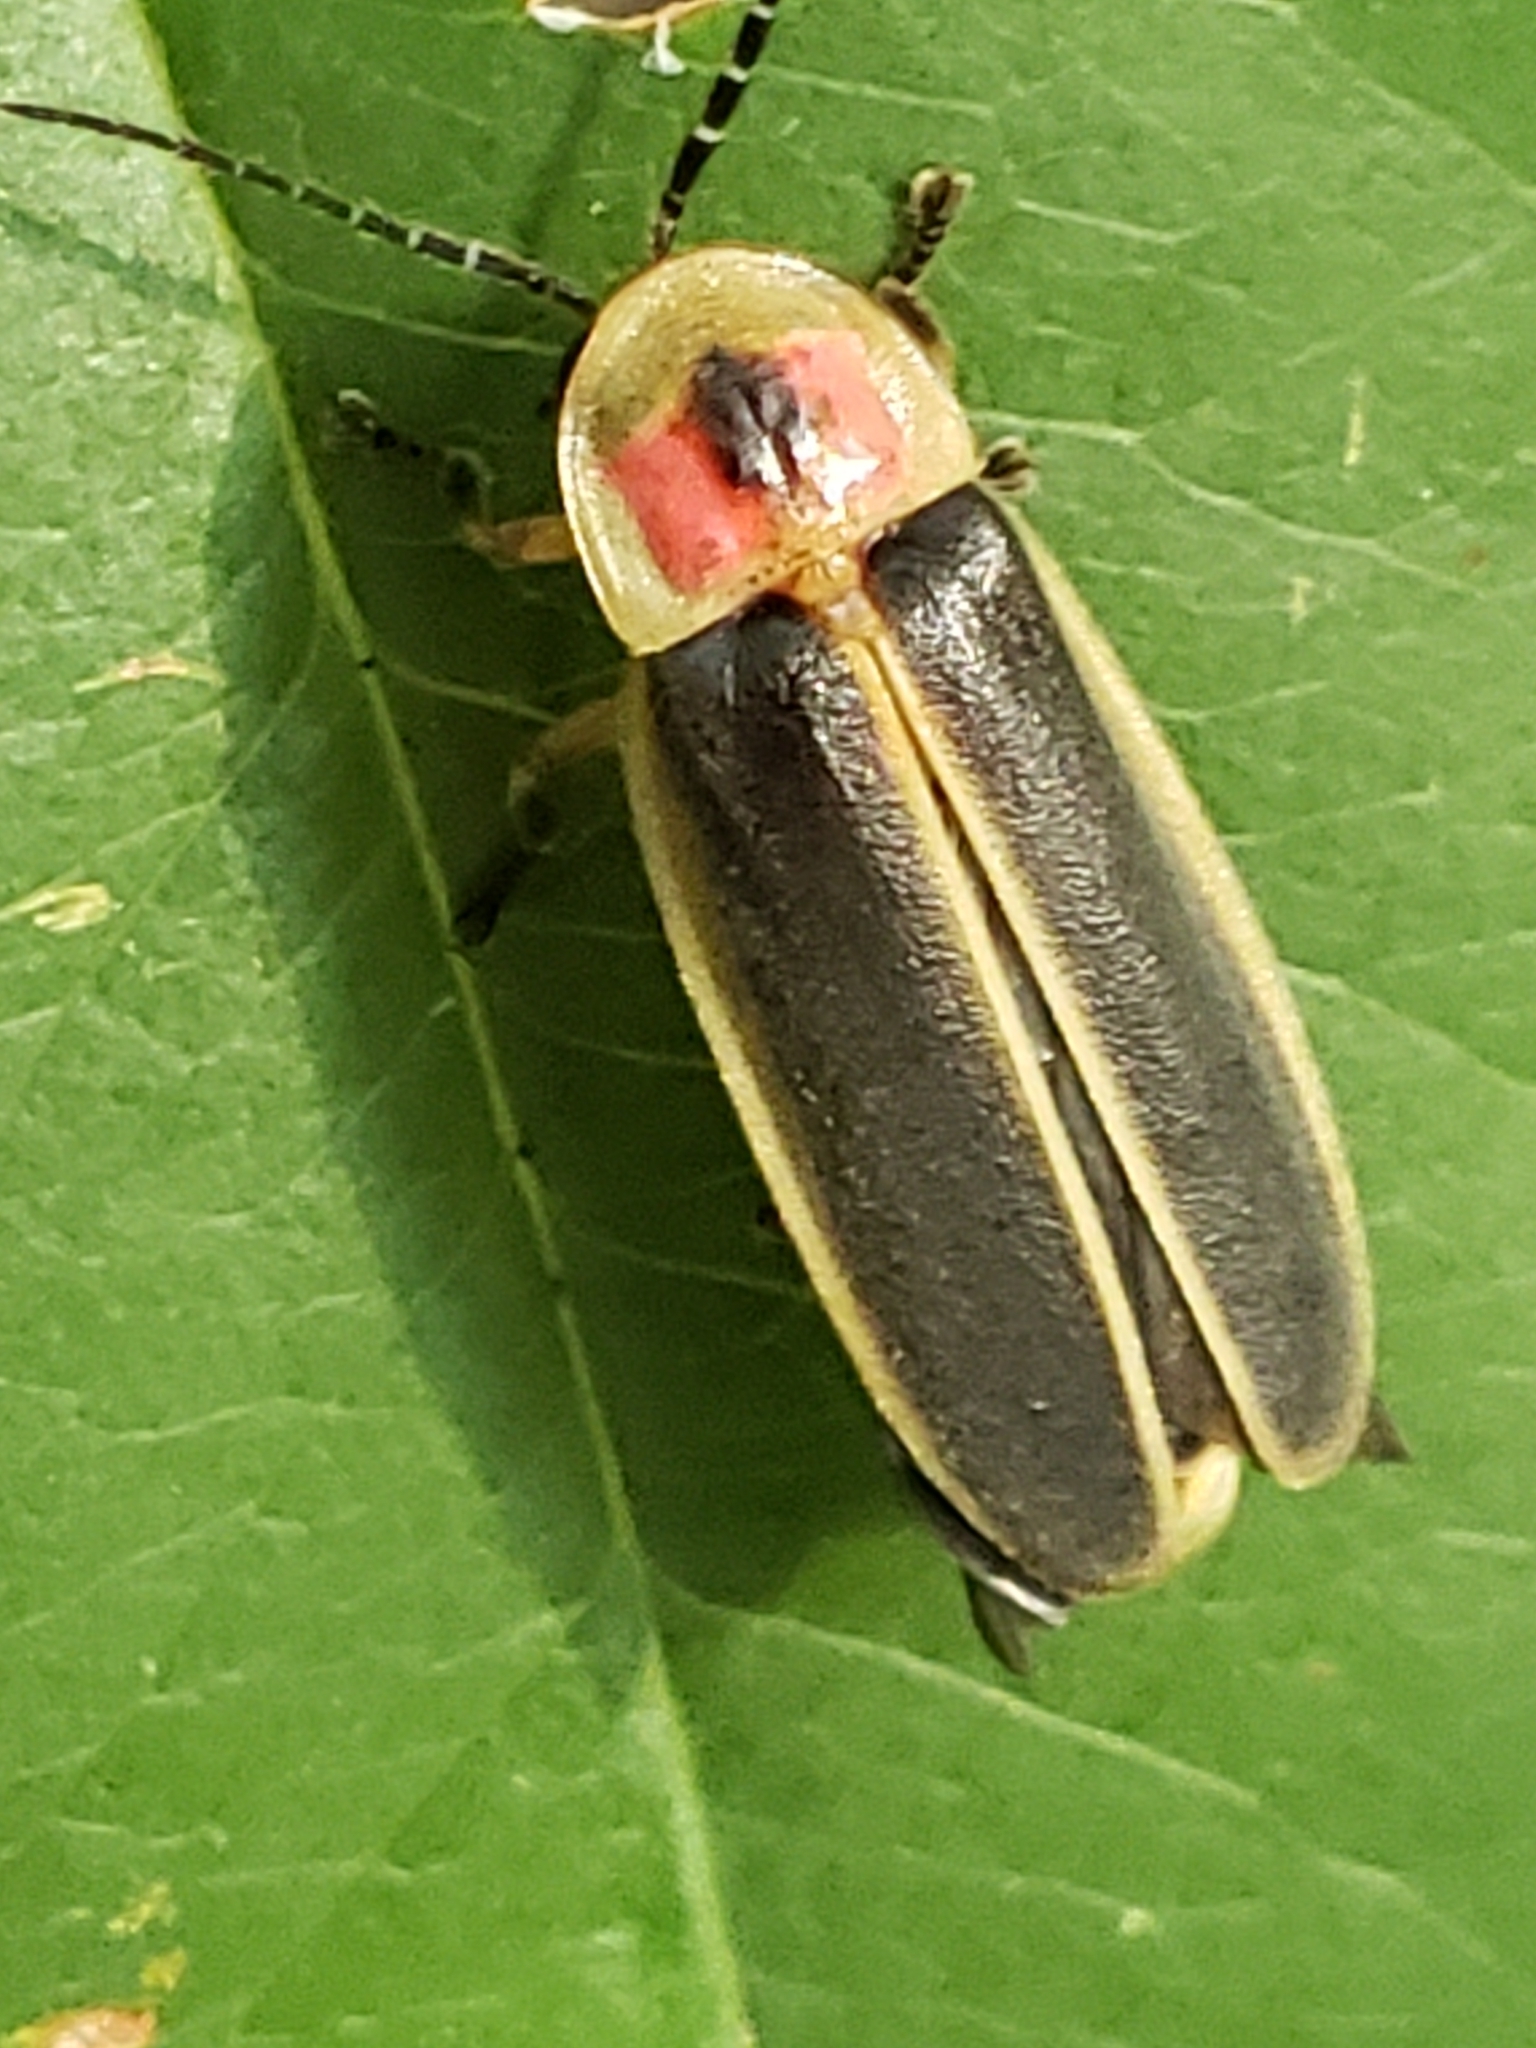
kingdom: Animalia
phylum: Arthropoda
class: Insecta
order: Coleoptera
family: Lampyridae
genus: Photinus
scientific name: Photinus pyralis
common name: Big dipper firefly
